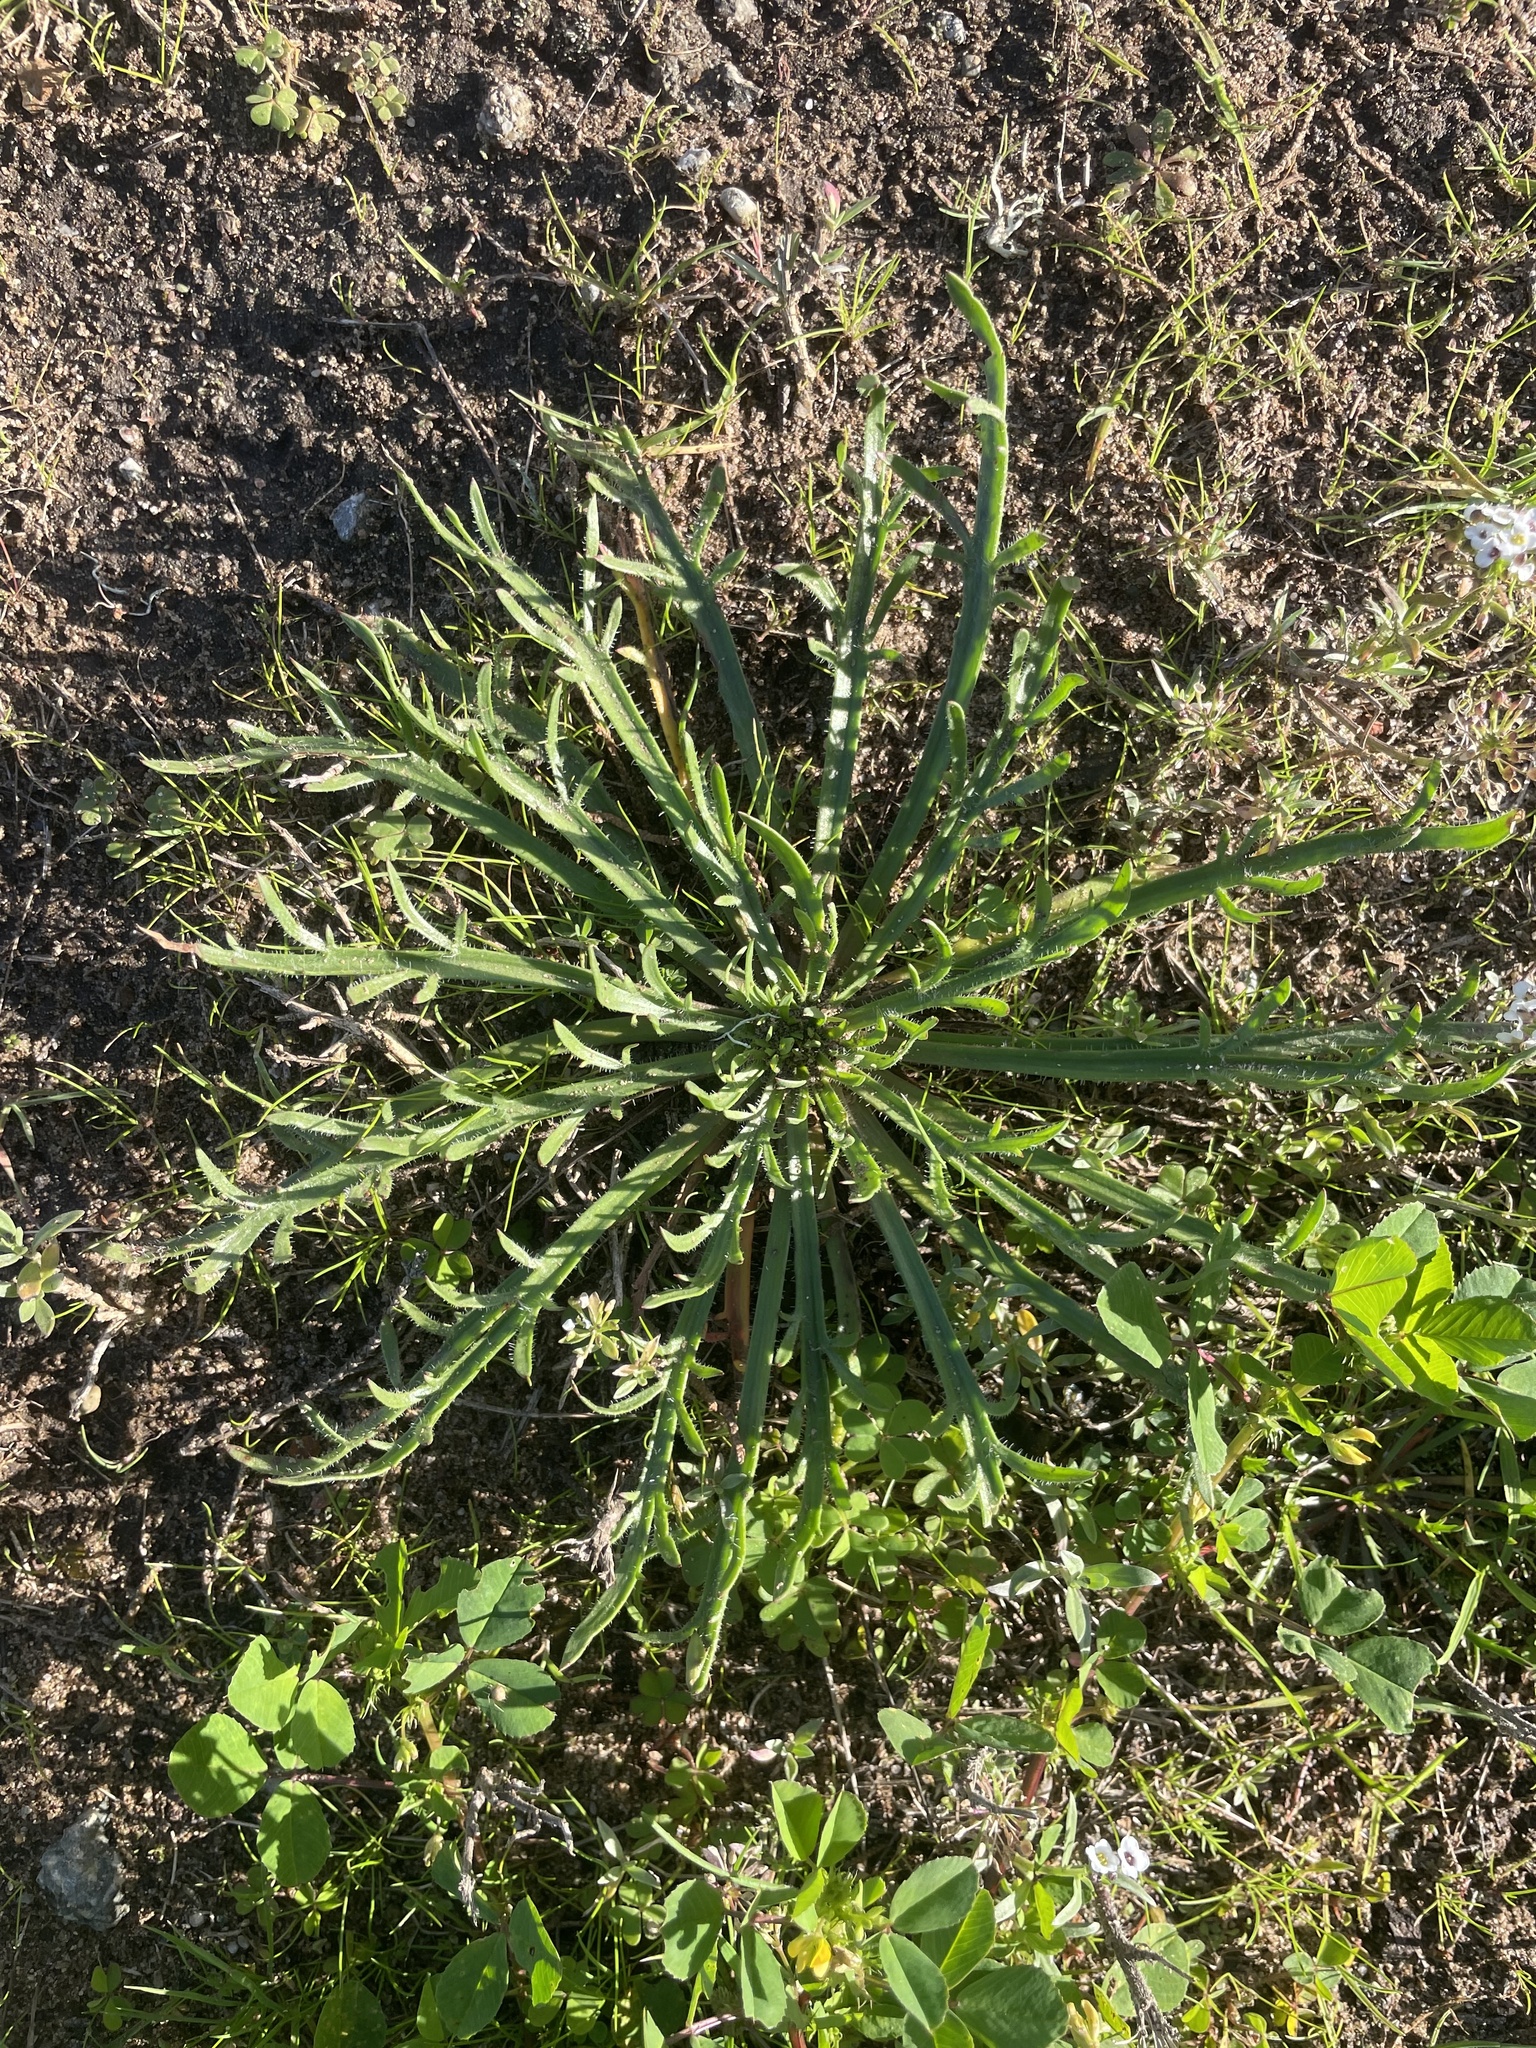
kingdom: Plantae
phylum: Tracheophyta
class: Magnoliopsida
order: Lamiales
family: Plantaginaceae
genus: Plantago
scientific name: Plantago coronopus
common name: Buck's-horn plantain
